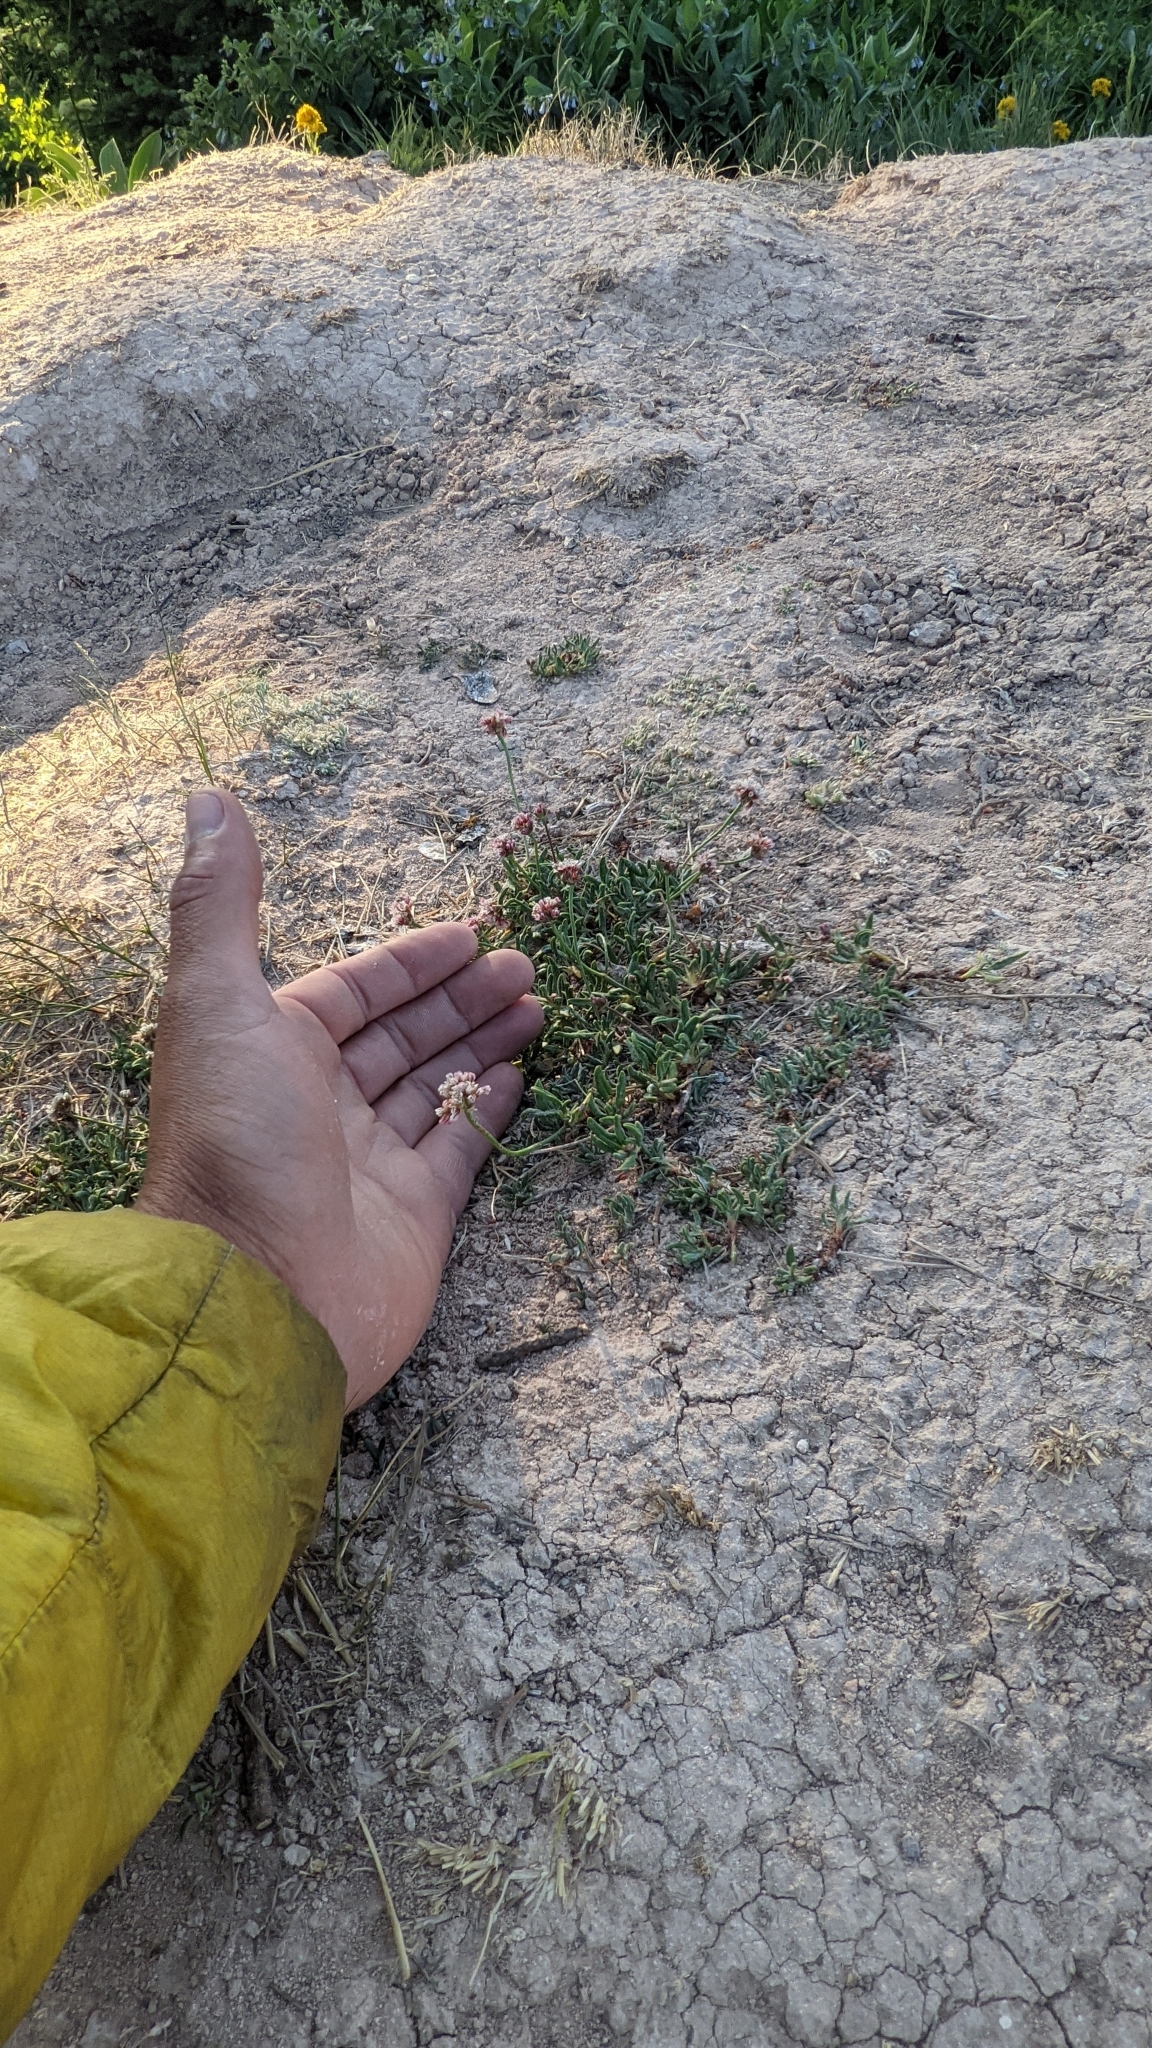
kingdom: Plantae
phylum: Tracheophyta
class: Magnoliopsida
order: Caryophyllales
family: Polygonaceae
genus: Eriogonum
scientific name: Eriogonum panguicense
